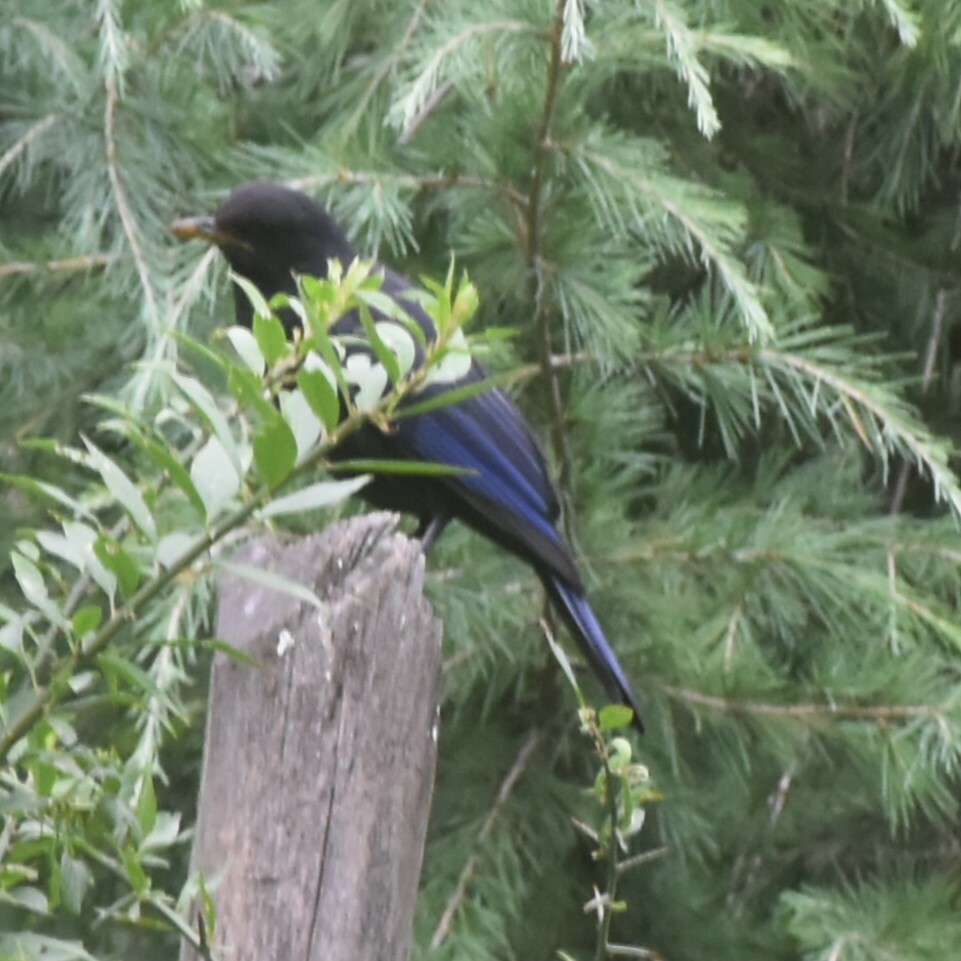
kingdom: Animalia
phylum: Chordata
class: Aves
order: Passeriformes
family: Muscicapidae
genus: Myophonus
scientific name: Myophonus caeruleus
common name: Blue whistling-thrush
